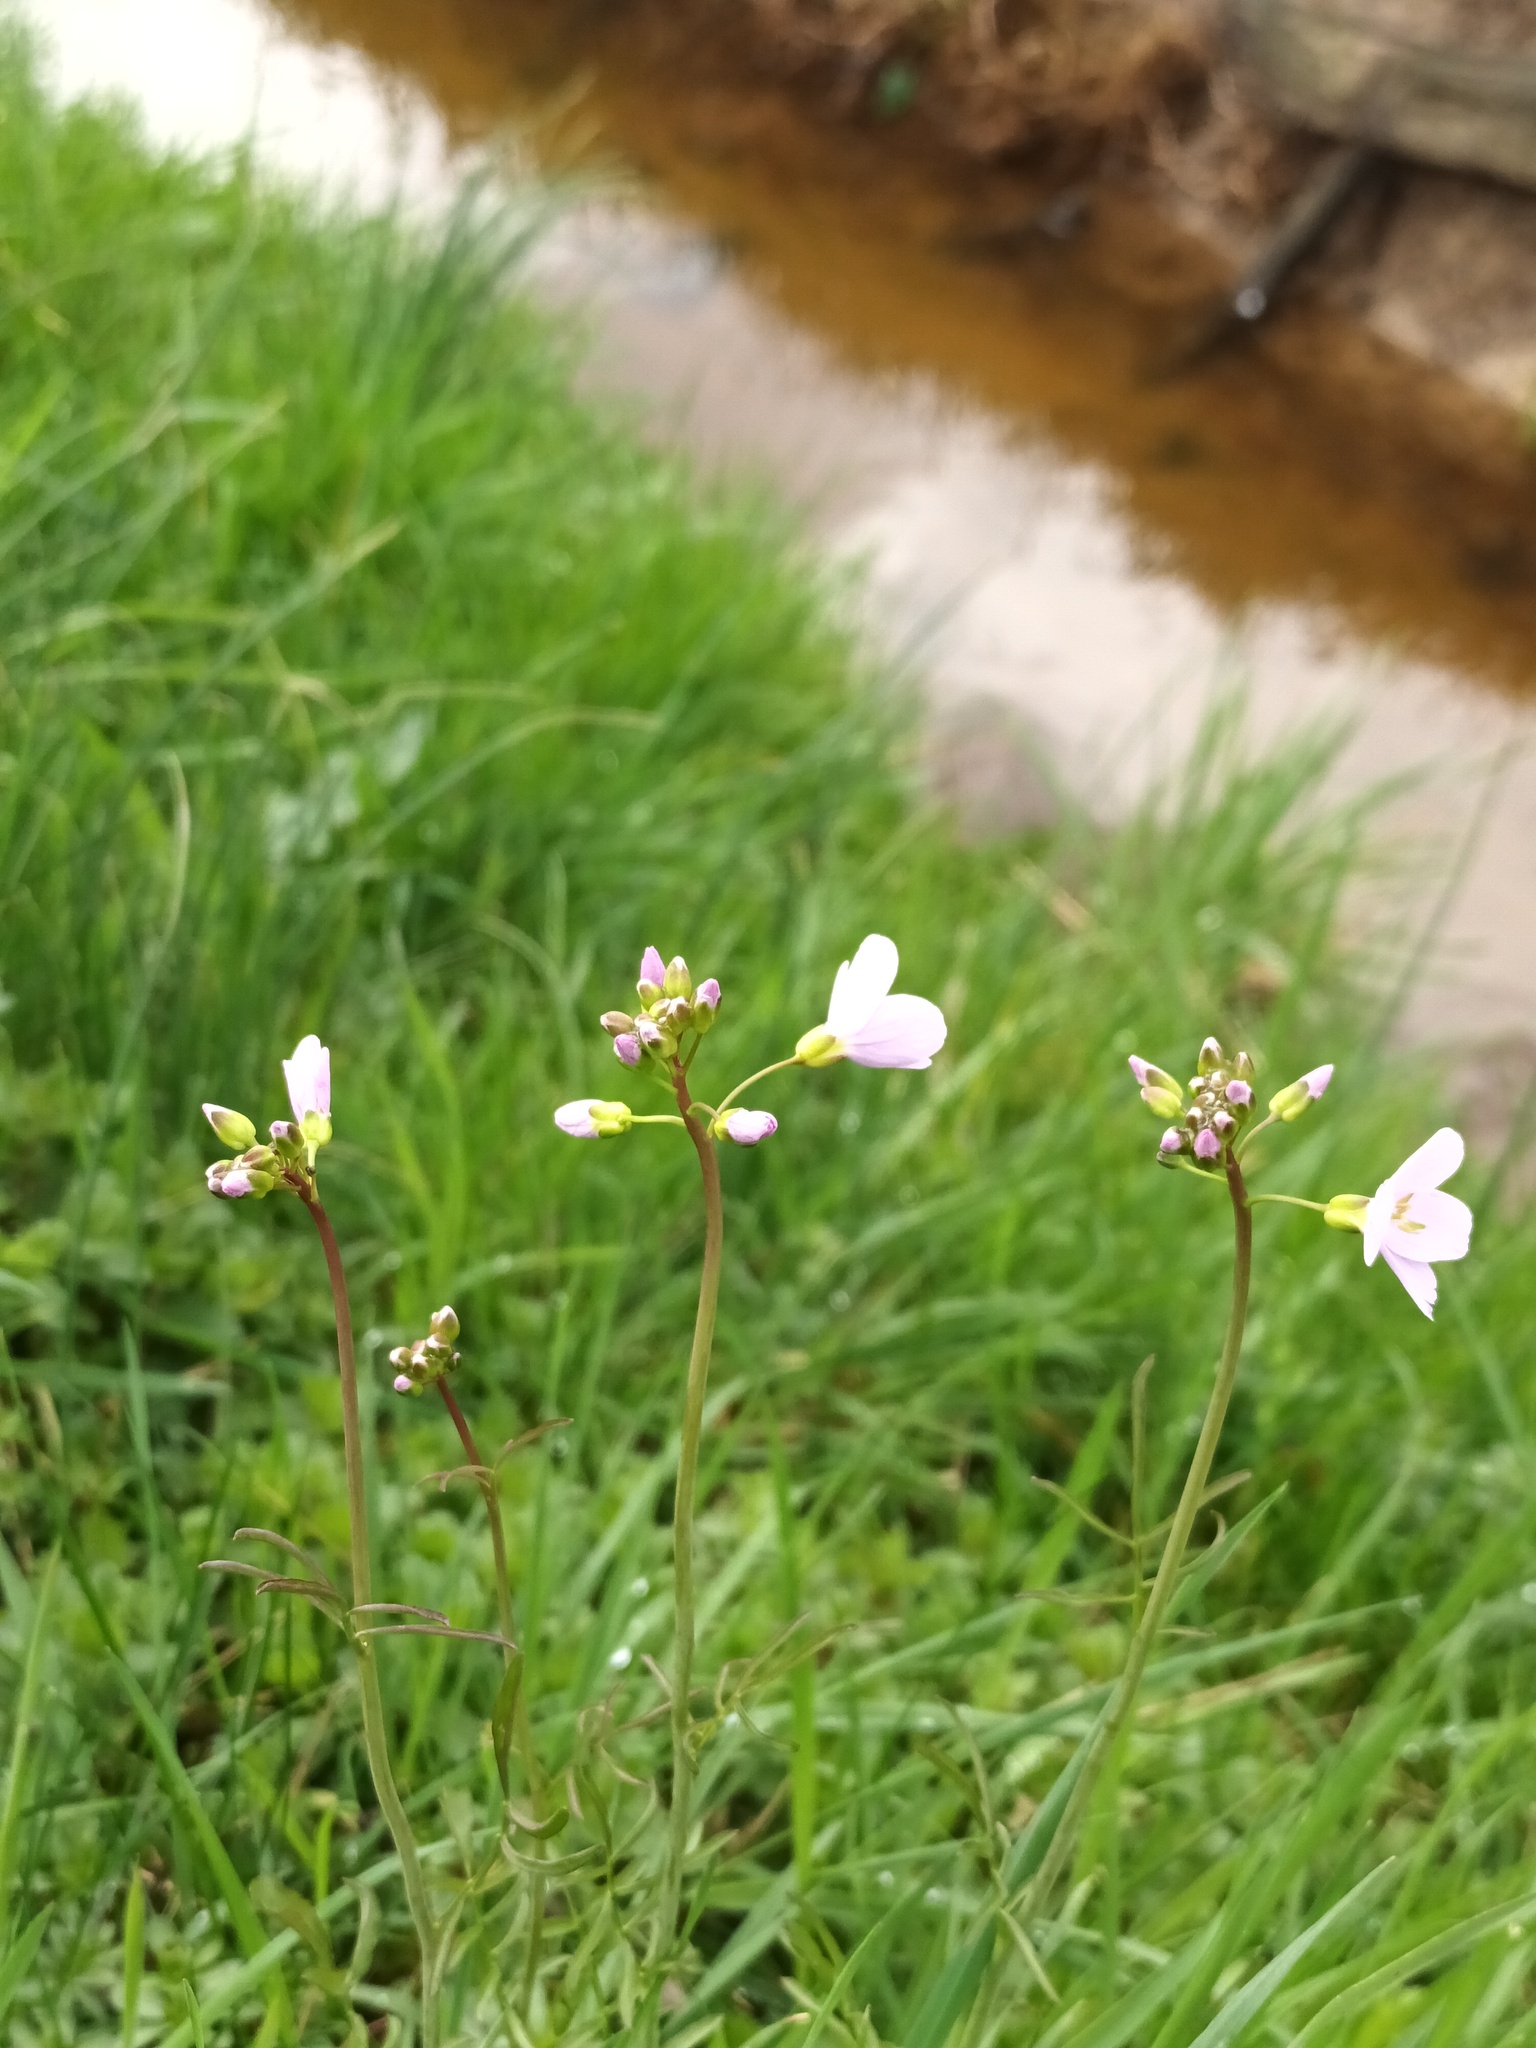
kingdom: Plantae
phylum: Tracheophyta
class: Magnoliopsida
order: Brassicales
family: Brassicaceae
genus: Cardamine
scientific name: Cardamine pratensis
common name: Cuckoo flower
